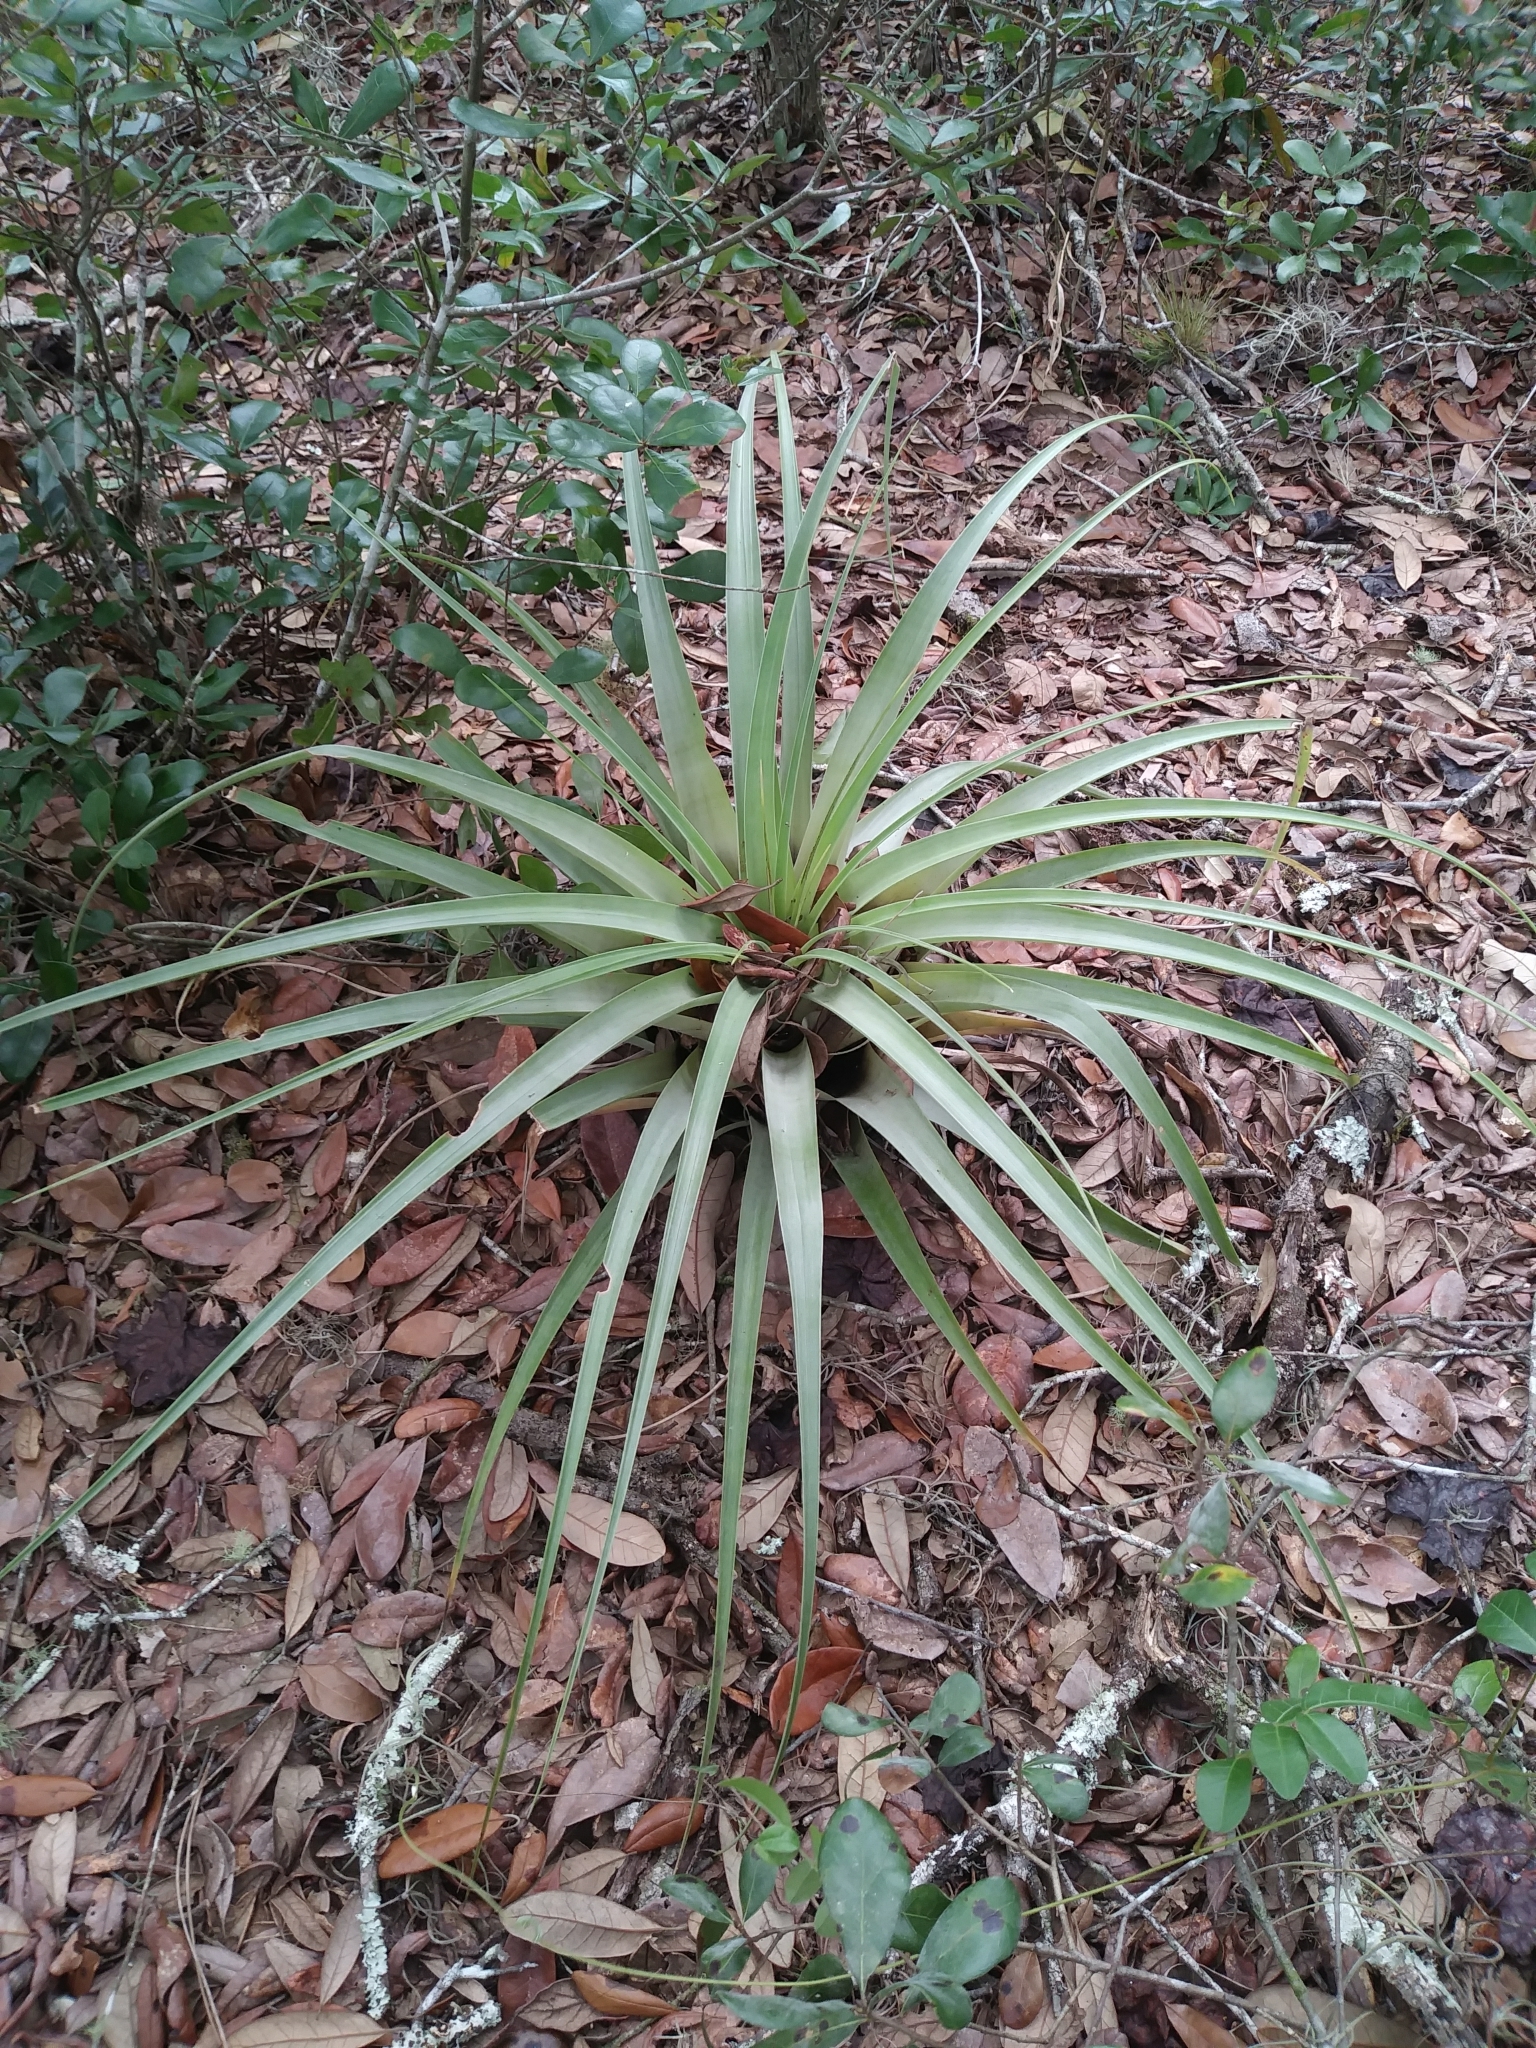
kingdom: Plantae
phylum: Tracheophyta
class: Liliopsida
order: Poales
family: Bromeliaceae
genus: Tillandsia
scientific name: Tillandsia utriculata
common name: Wild pine
